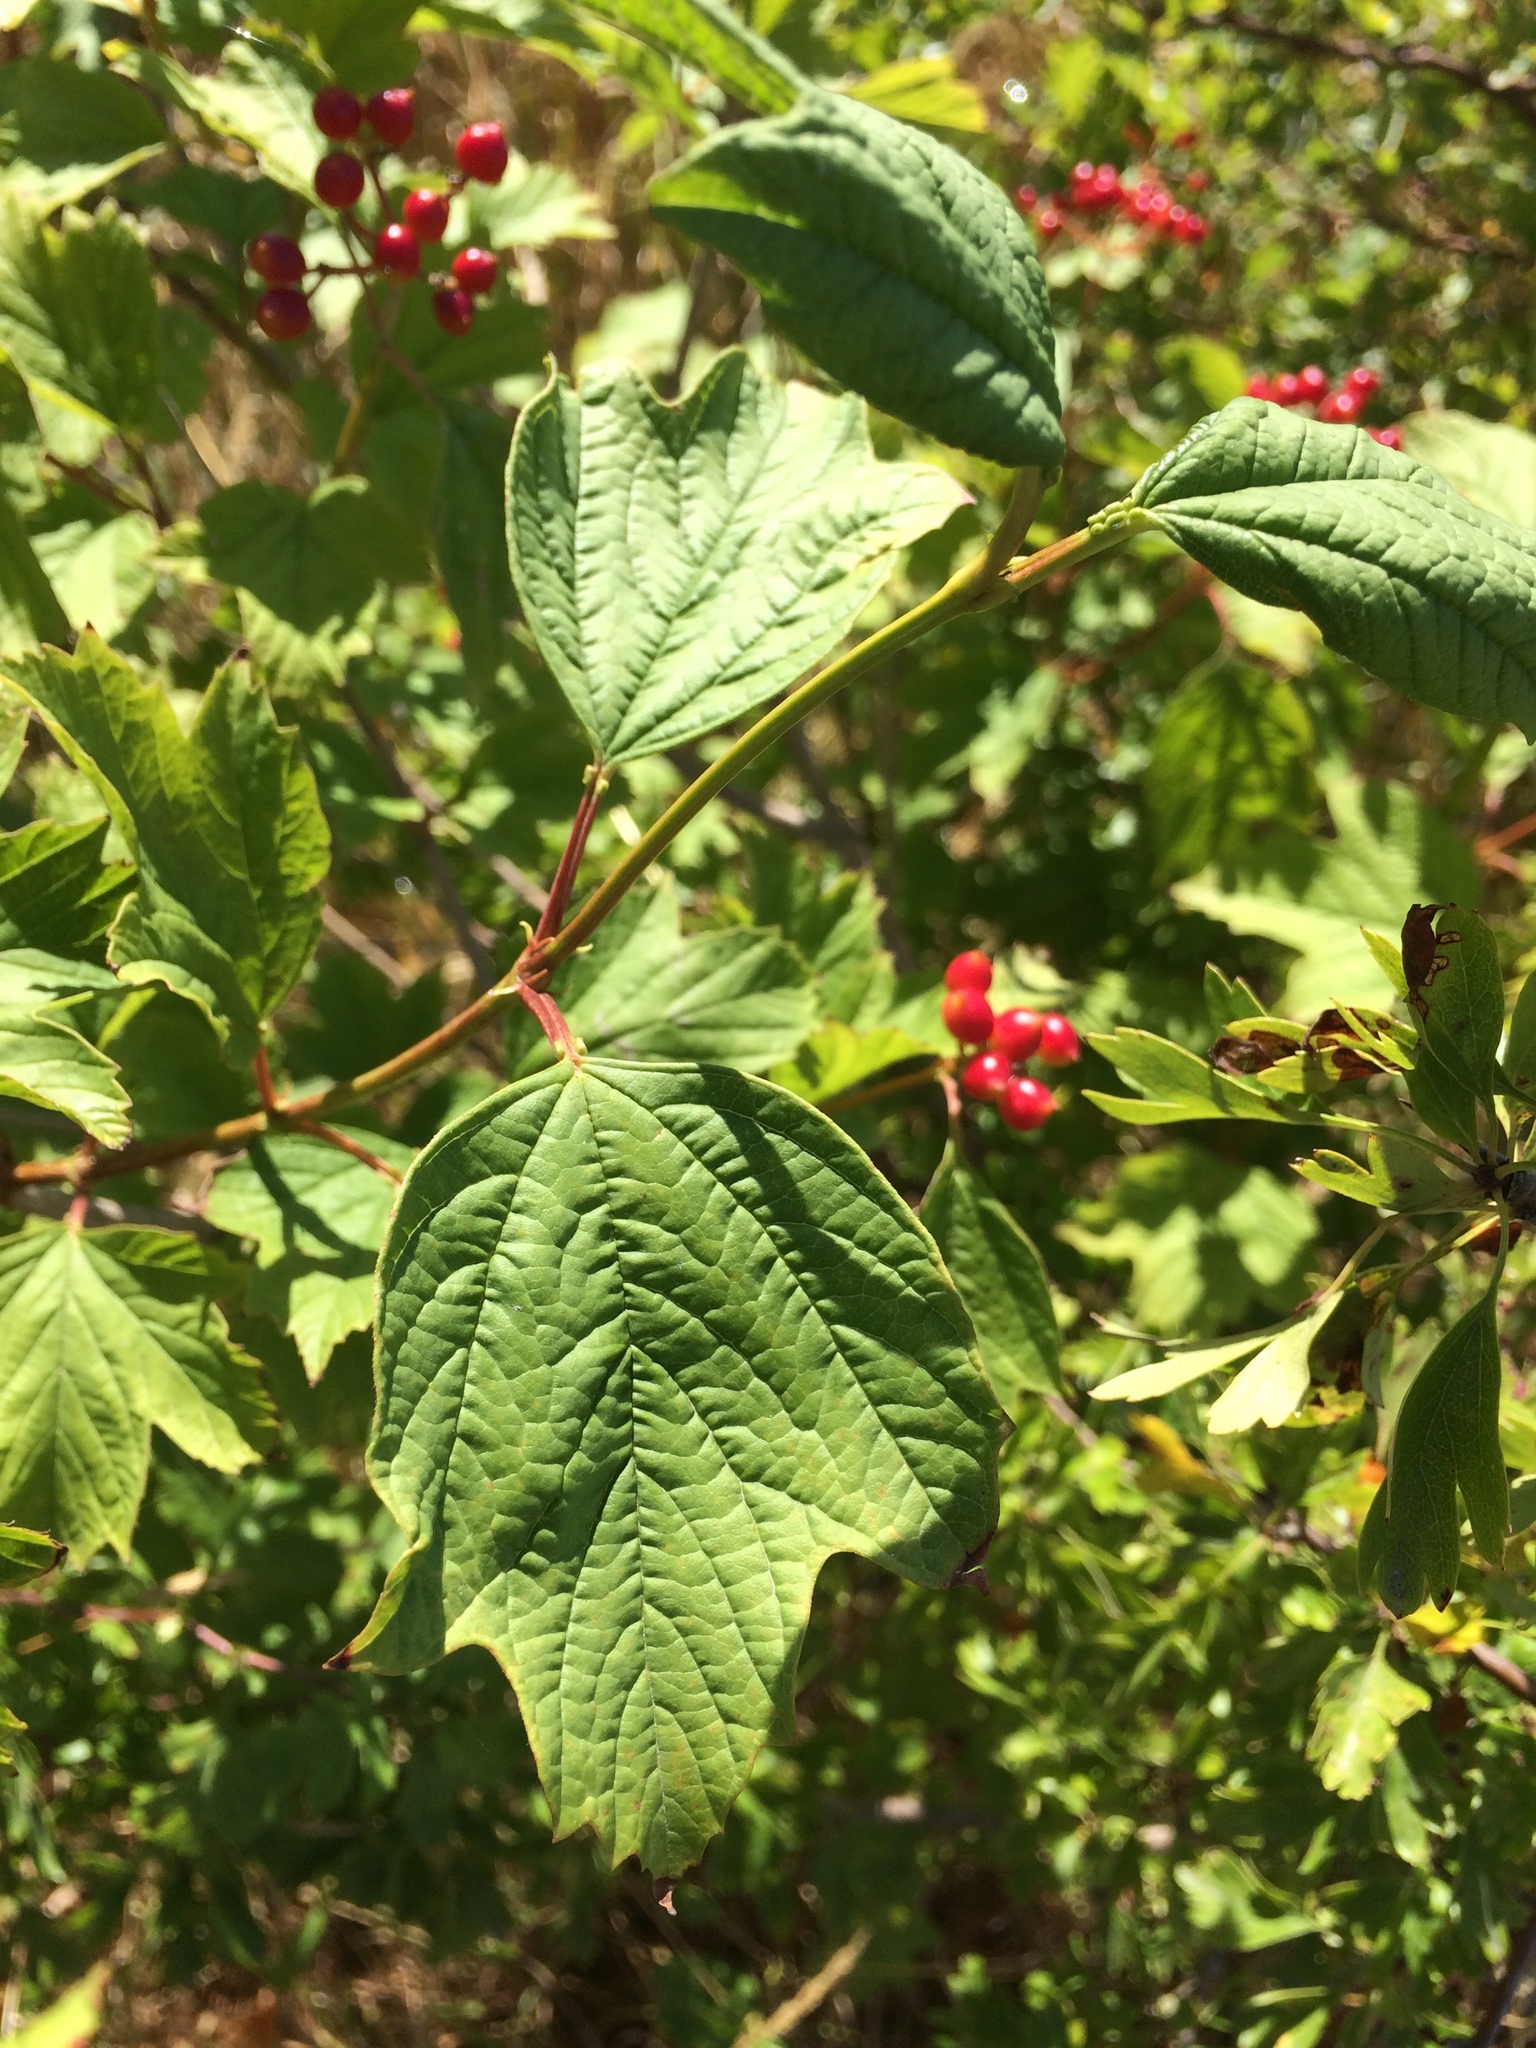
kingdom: Plantae
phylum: Tracheophyta
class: Magnoliopsida
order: Dipsacales
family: Viburnaceae
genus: Viburnum
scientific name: Viburnum opulus
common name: Guelder-rose
